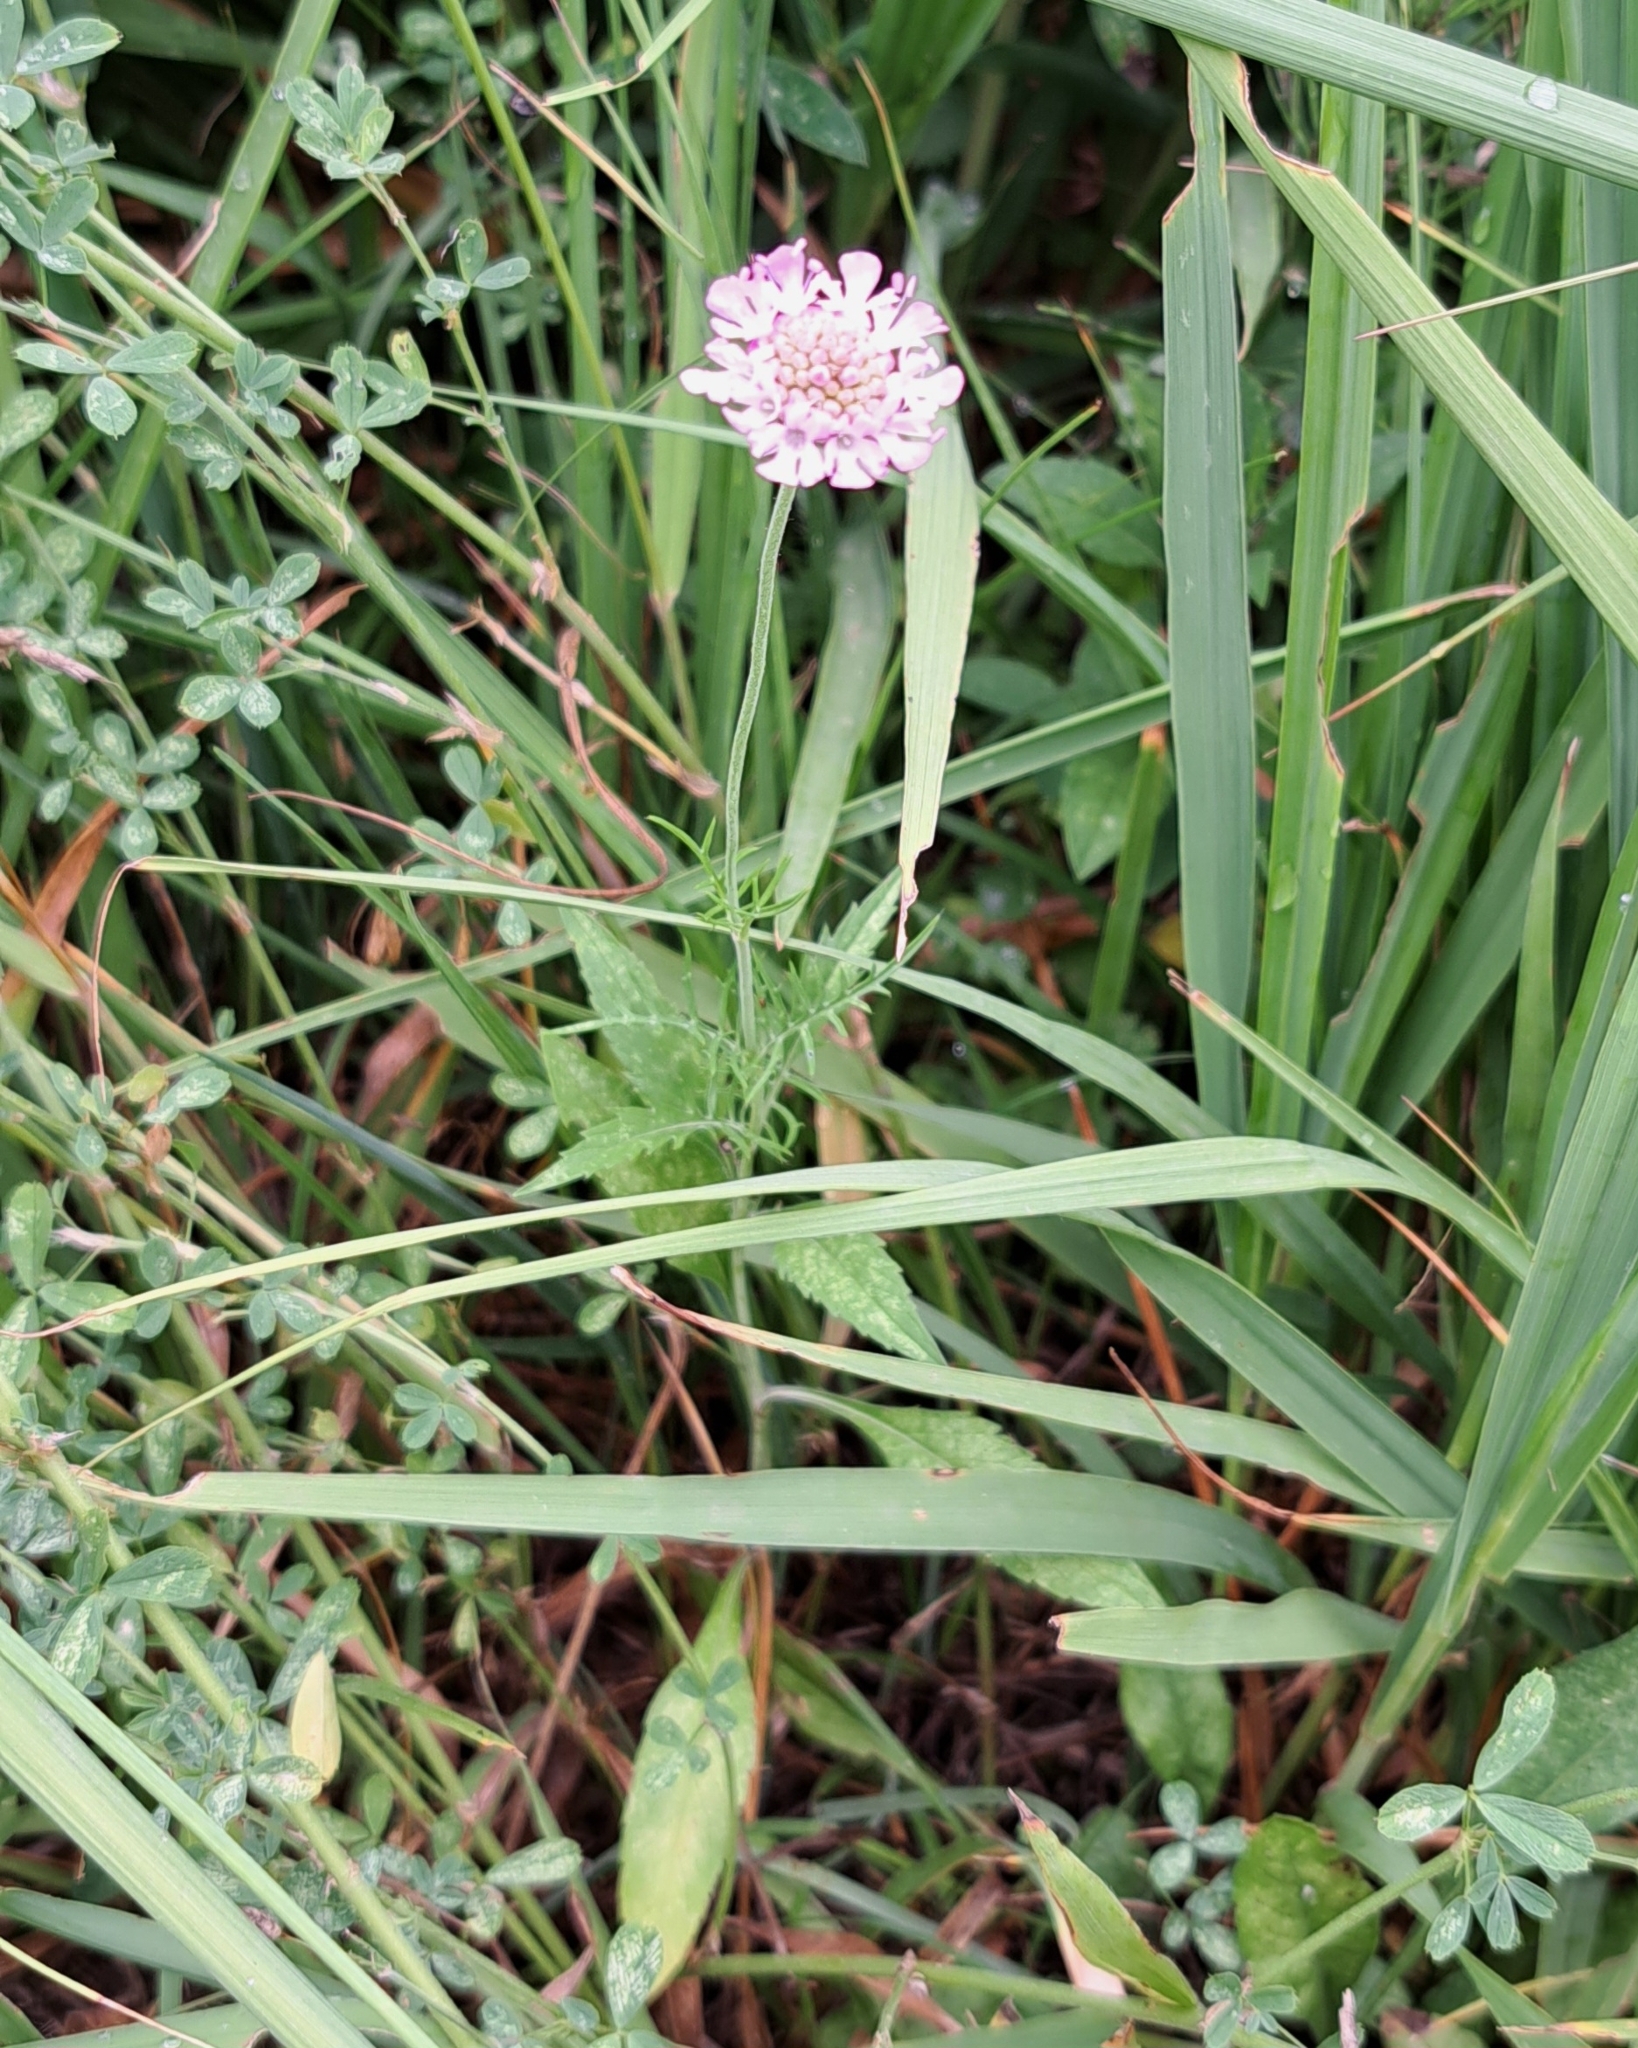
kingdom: Plantae
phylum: Tracheophyta
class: Magnoliopsida
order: Dipsacales
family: Caprifoliaceae
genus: Scabiosa
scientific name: Scabiosa columbaria
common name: Small scabious
